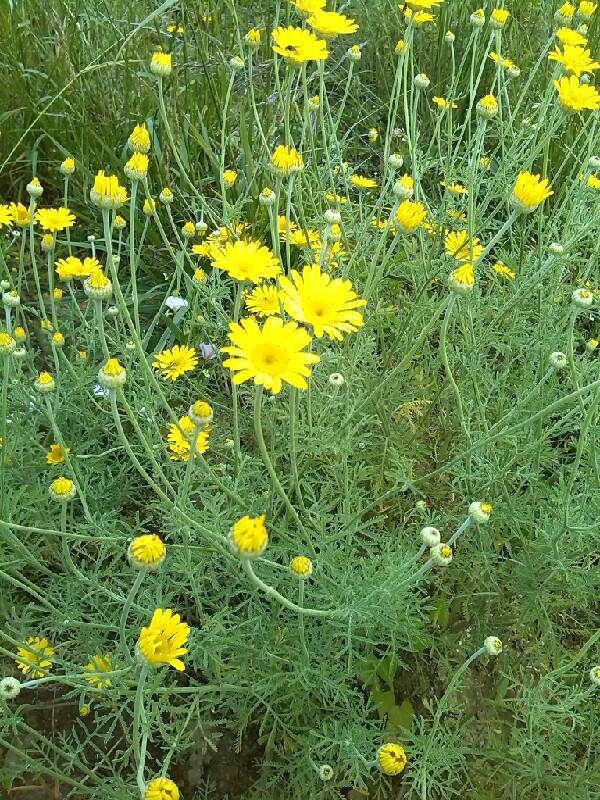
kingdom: Plantae
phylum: Tracheophyta
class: Magnoliopsida
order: Asterales
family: Asteraceae
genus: Cota
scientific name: Cota tinctoria
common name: Golden chamomile
